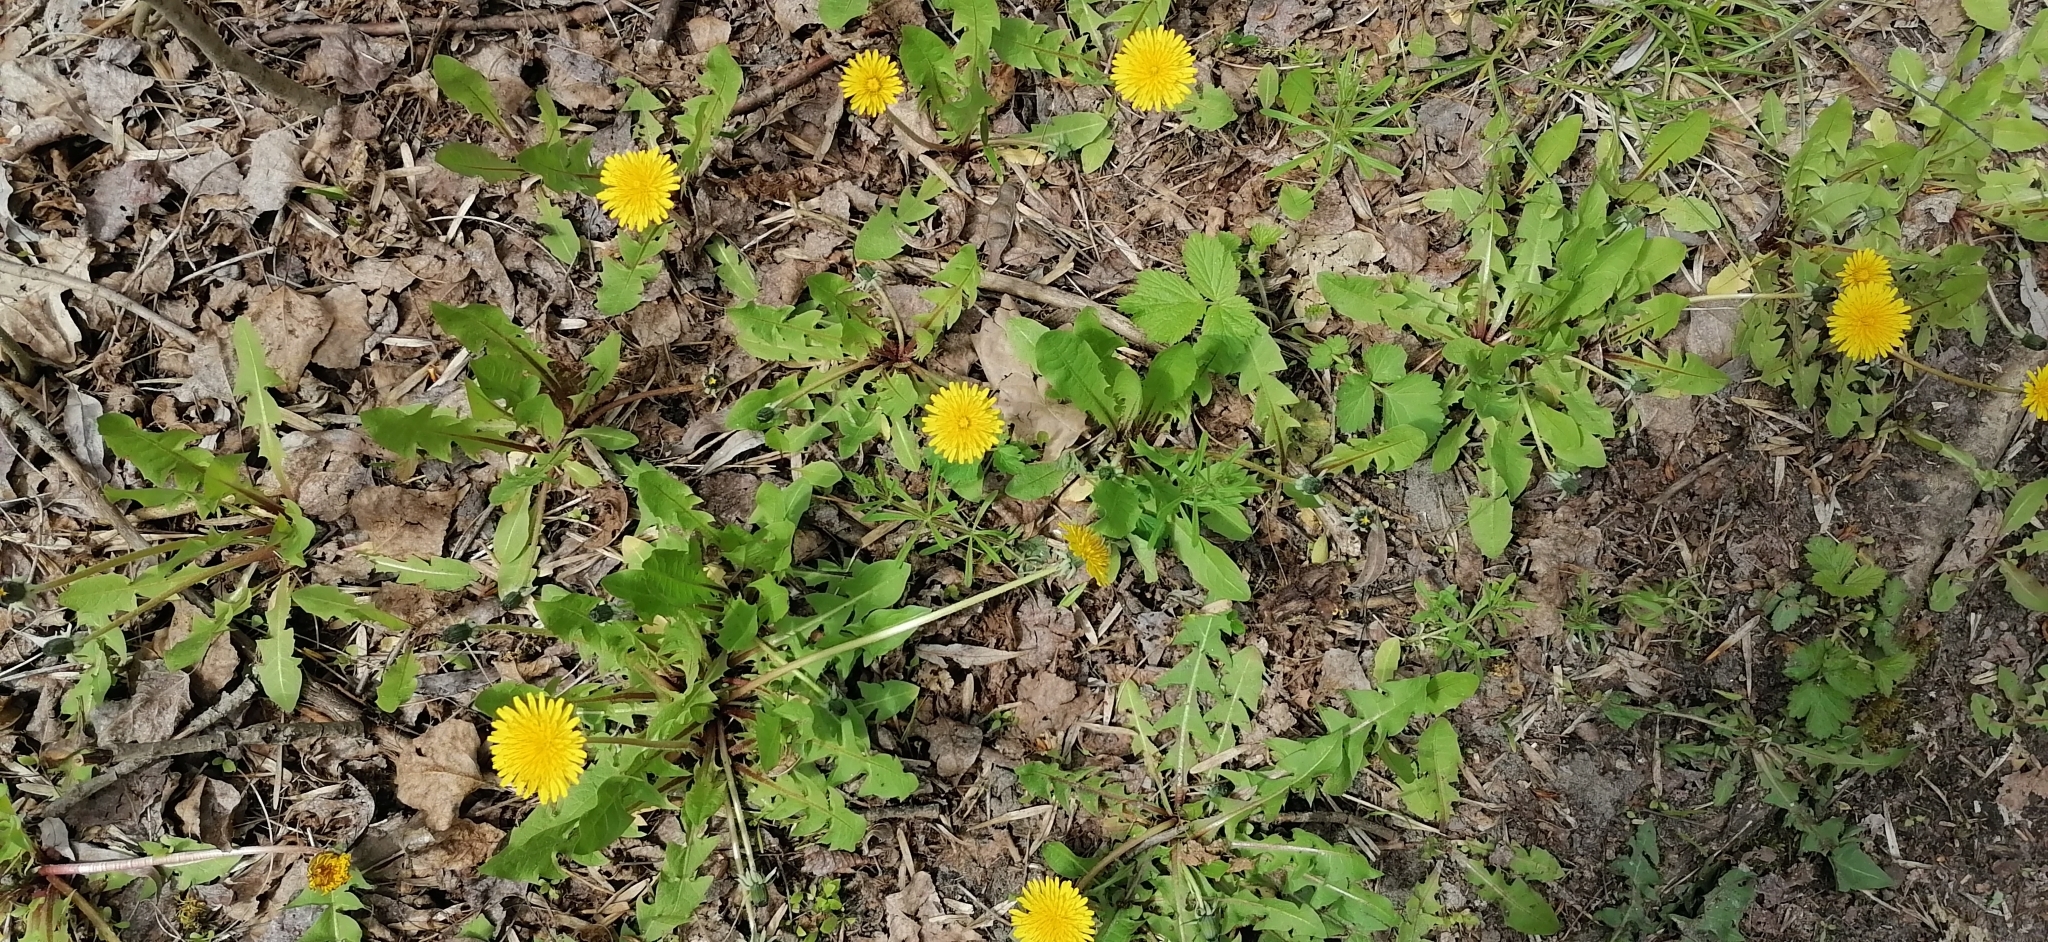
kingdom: Plantae
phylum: Tracheophyta
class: Magnoliopsida
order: Asterales
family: Asteraceae
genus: Taraxacum
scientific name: Taraxacum officinale
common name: Common dandelion
